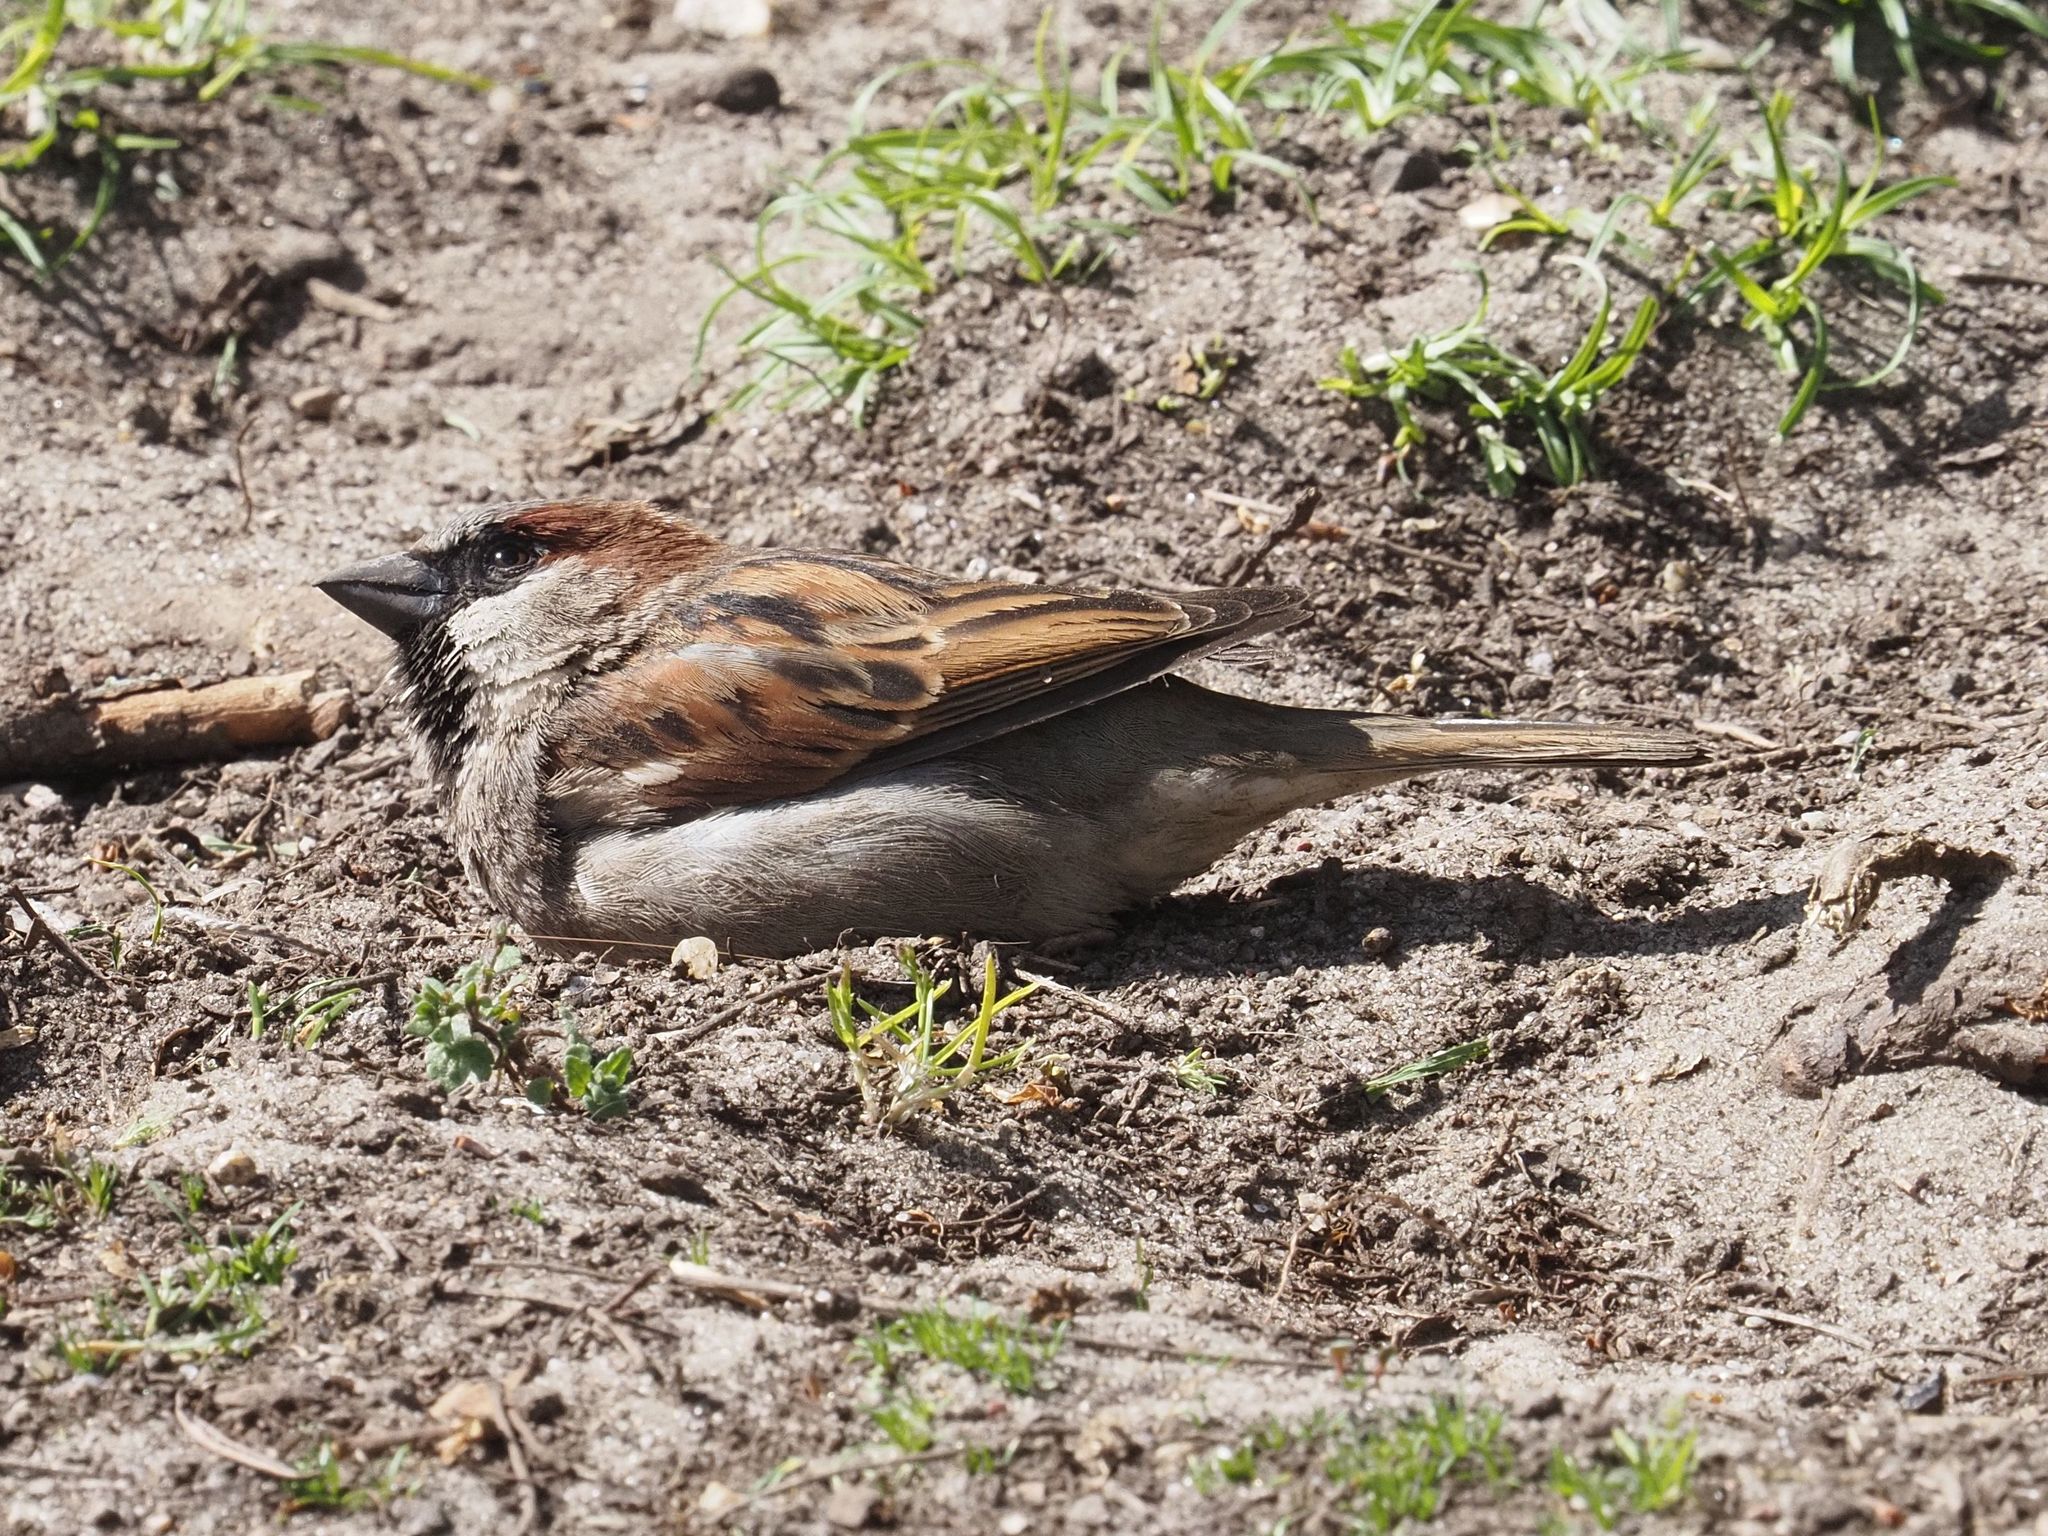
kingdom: Animalia
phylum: Chordata
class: Aves
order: Passeriformes
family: Passeridae
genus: Passer
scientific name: Passer domesticus
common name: House sparrow
